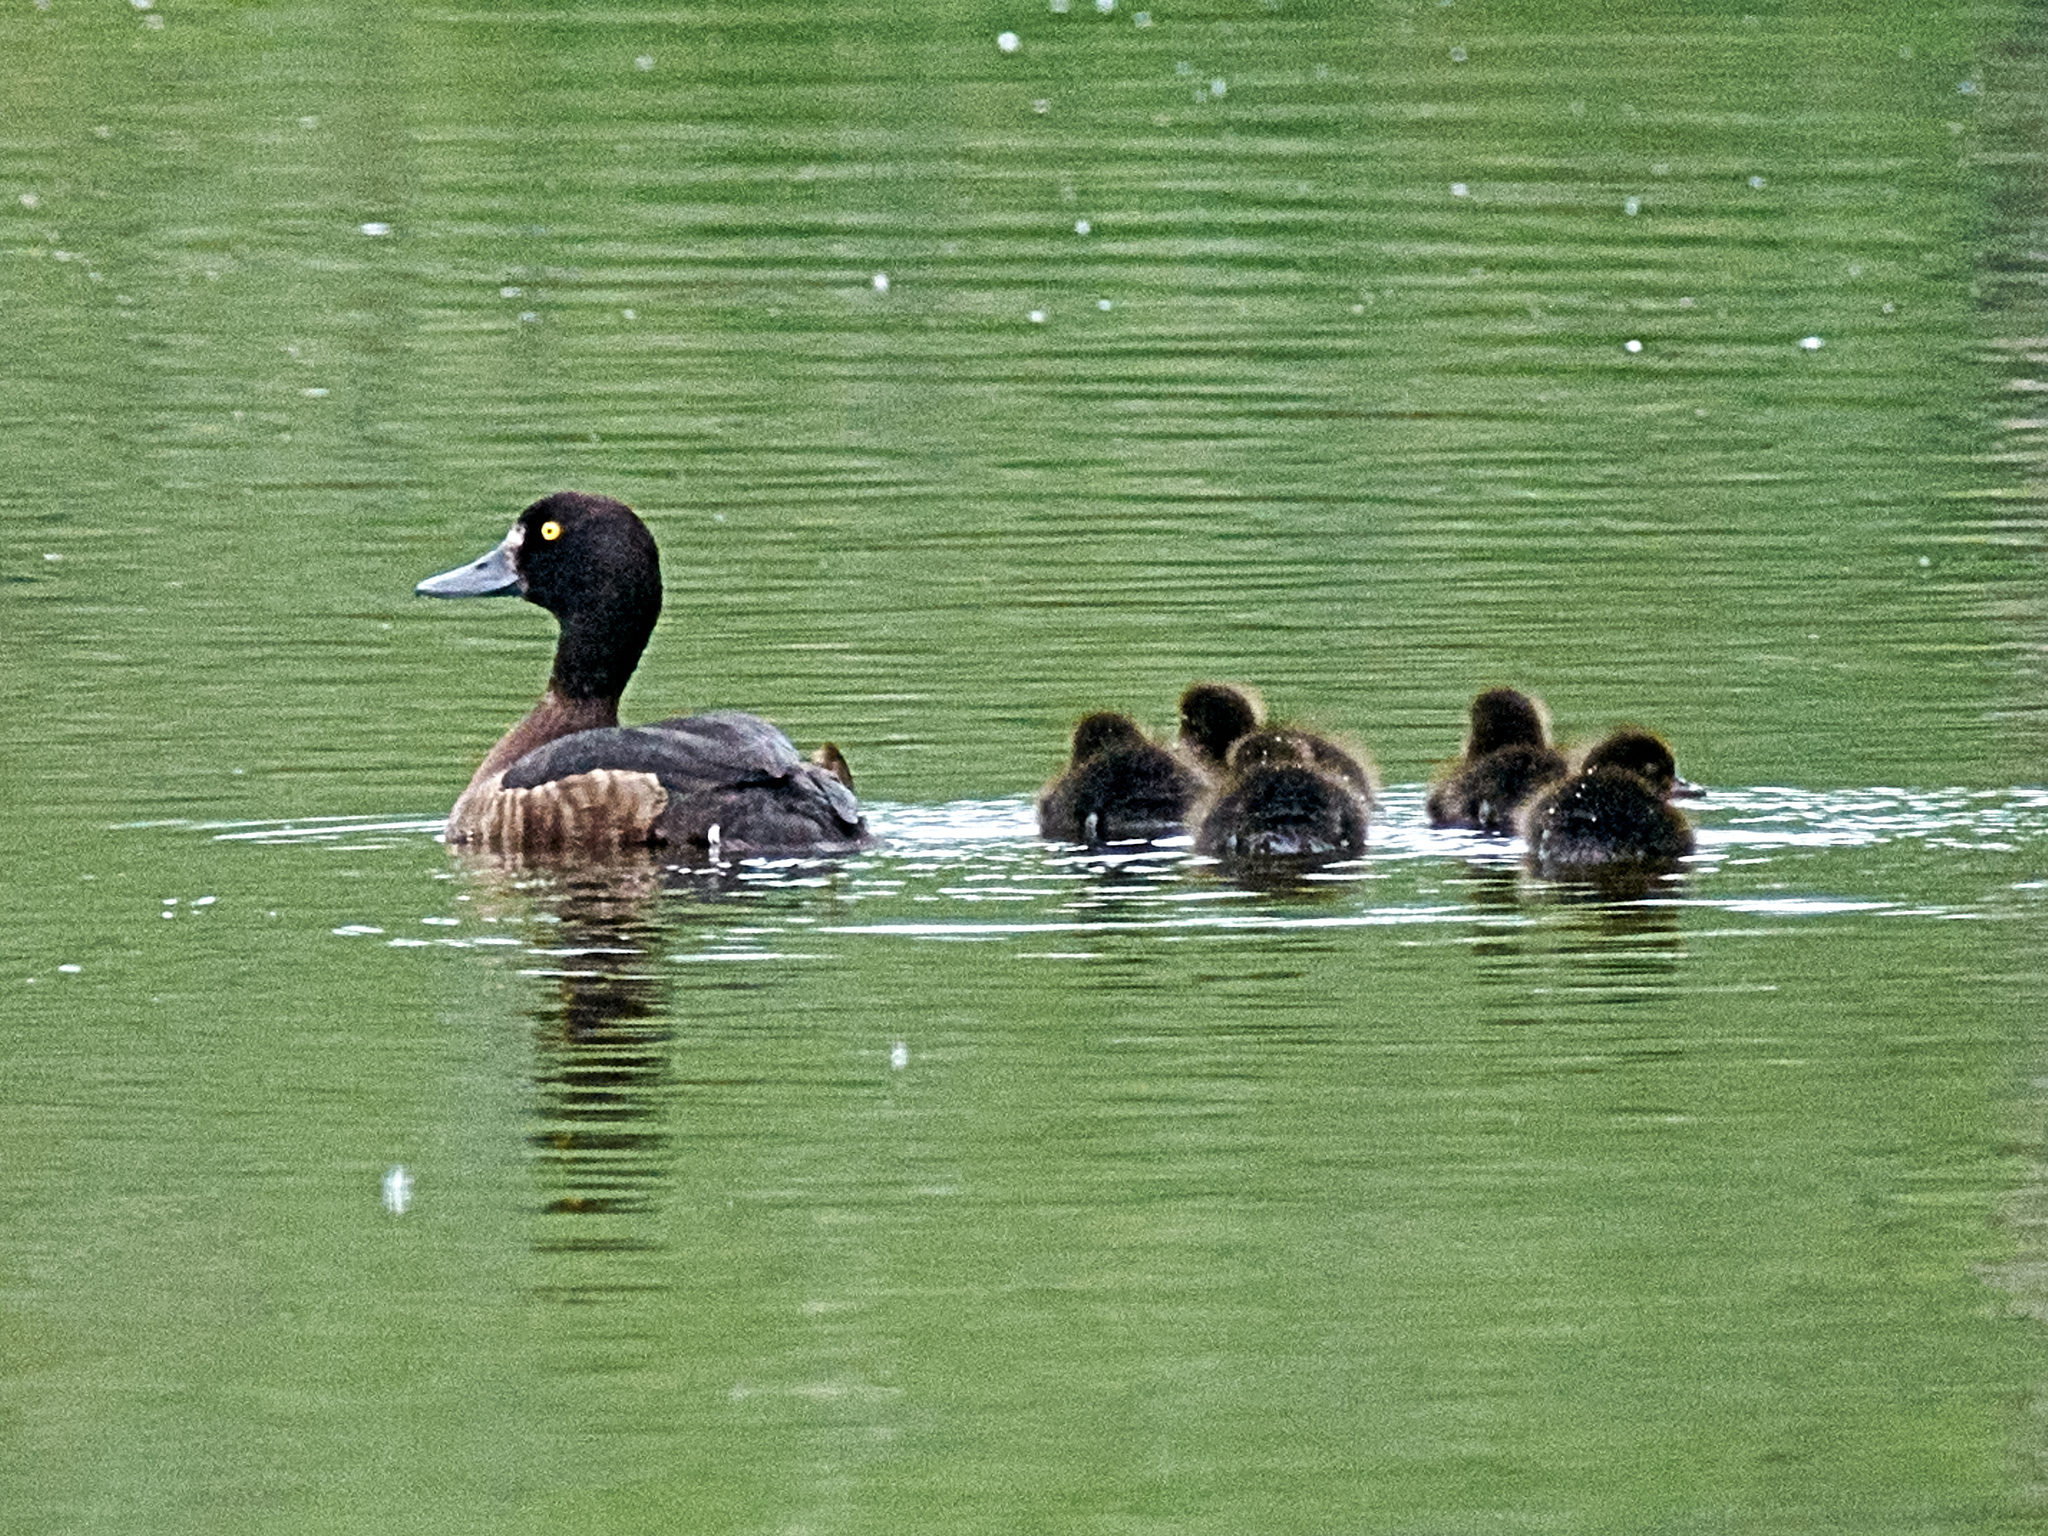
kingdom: Animalia
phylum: Chordata
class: Aves
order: Anseriformes
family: Anatidae
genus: Aythya
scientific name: Aythya fuligula
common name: Tufted duck
